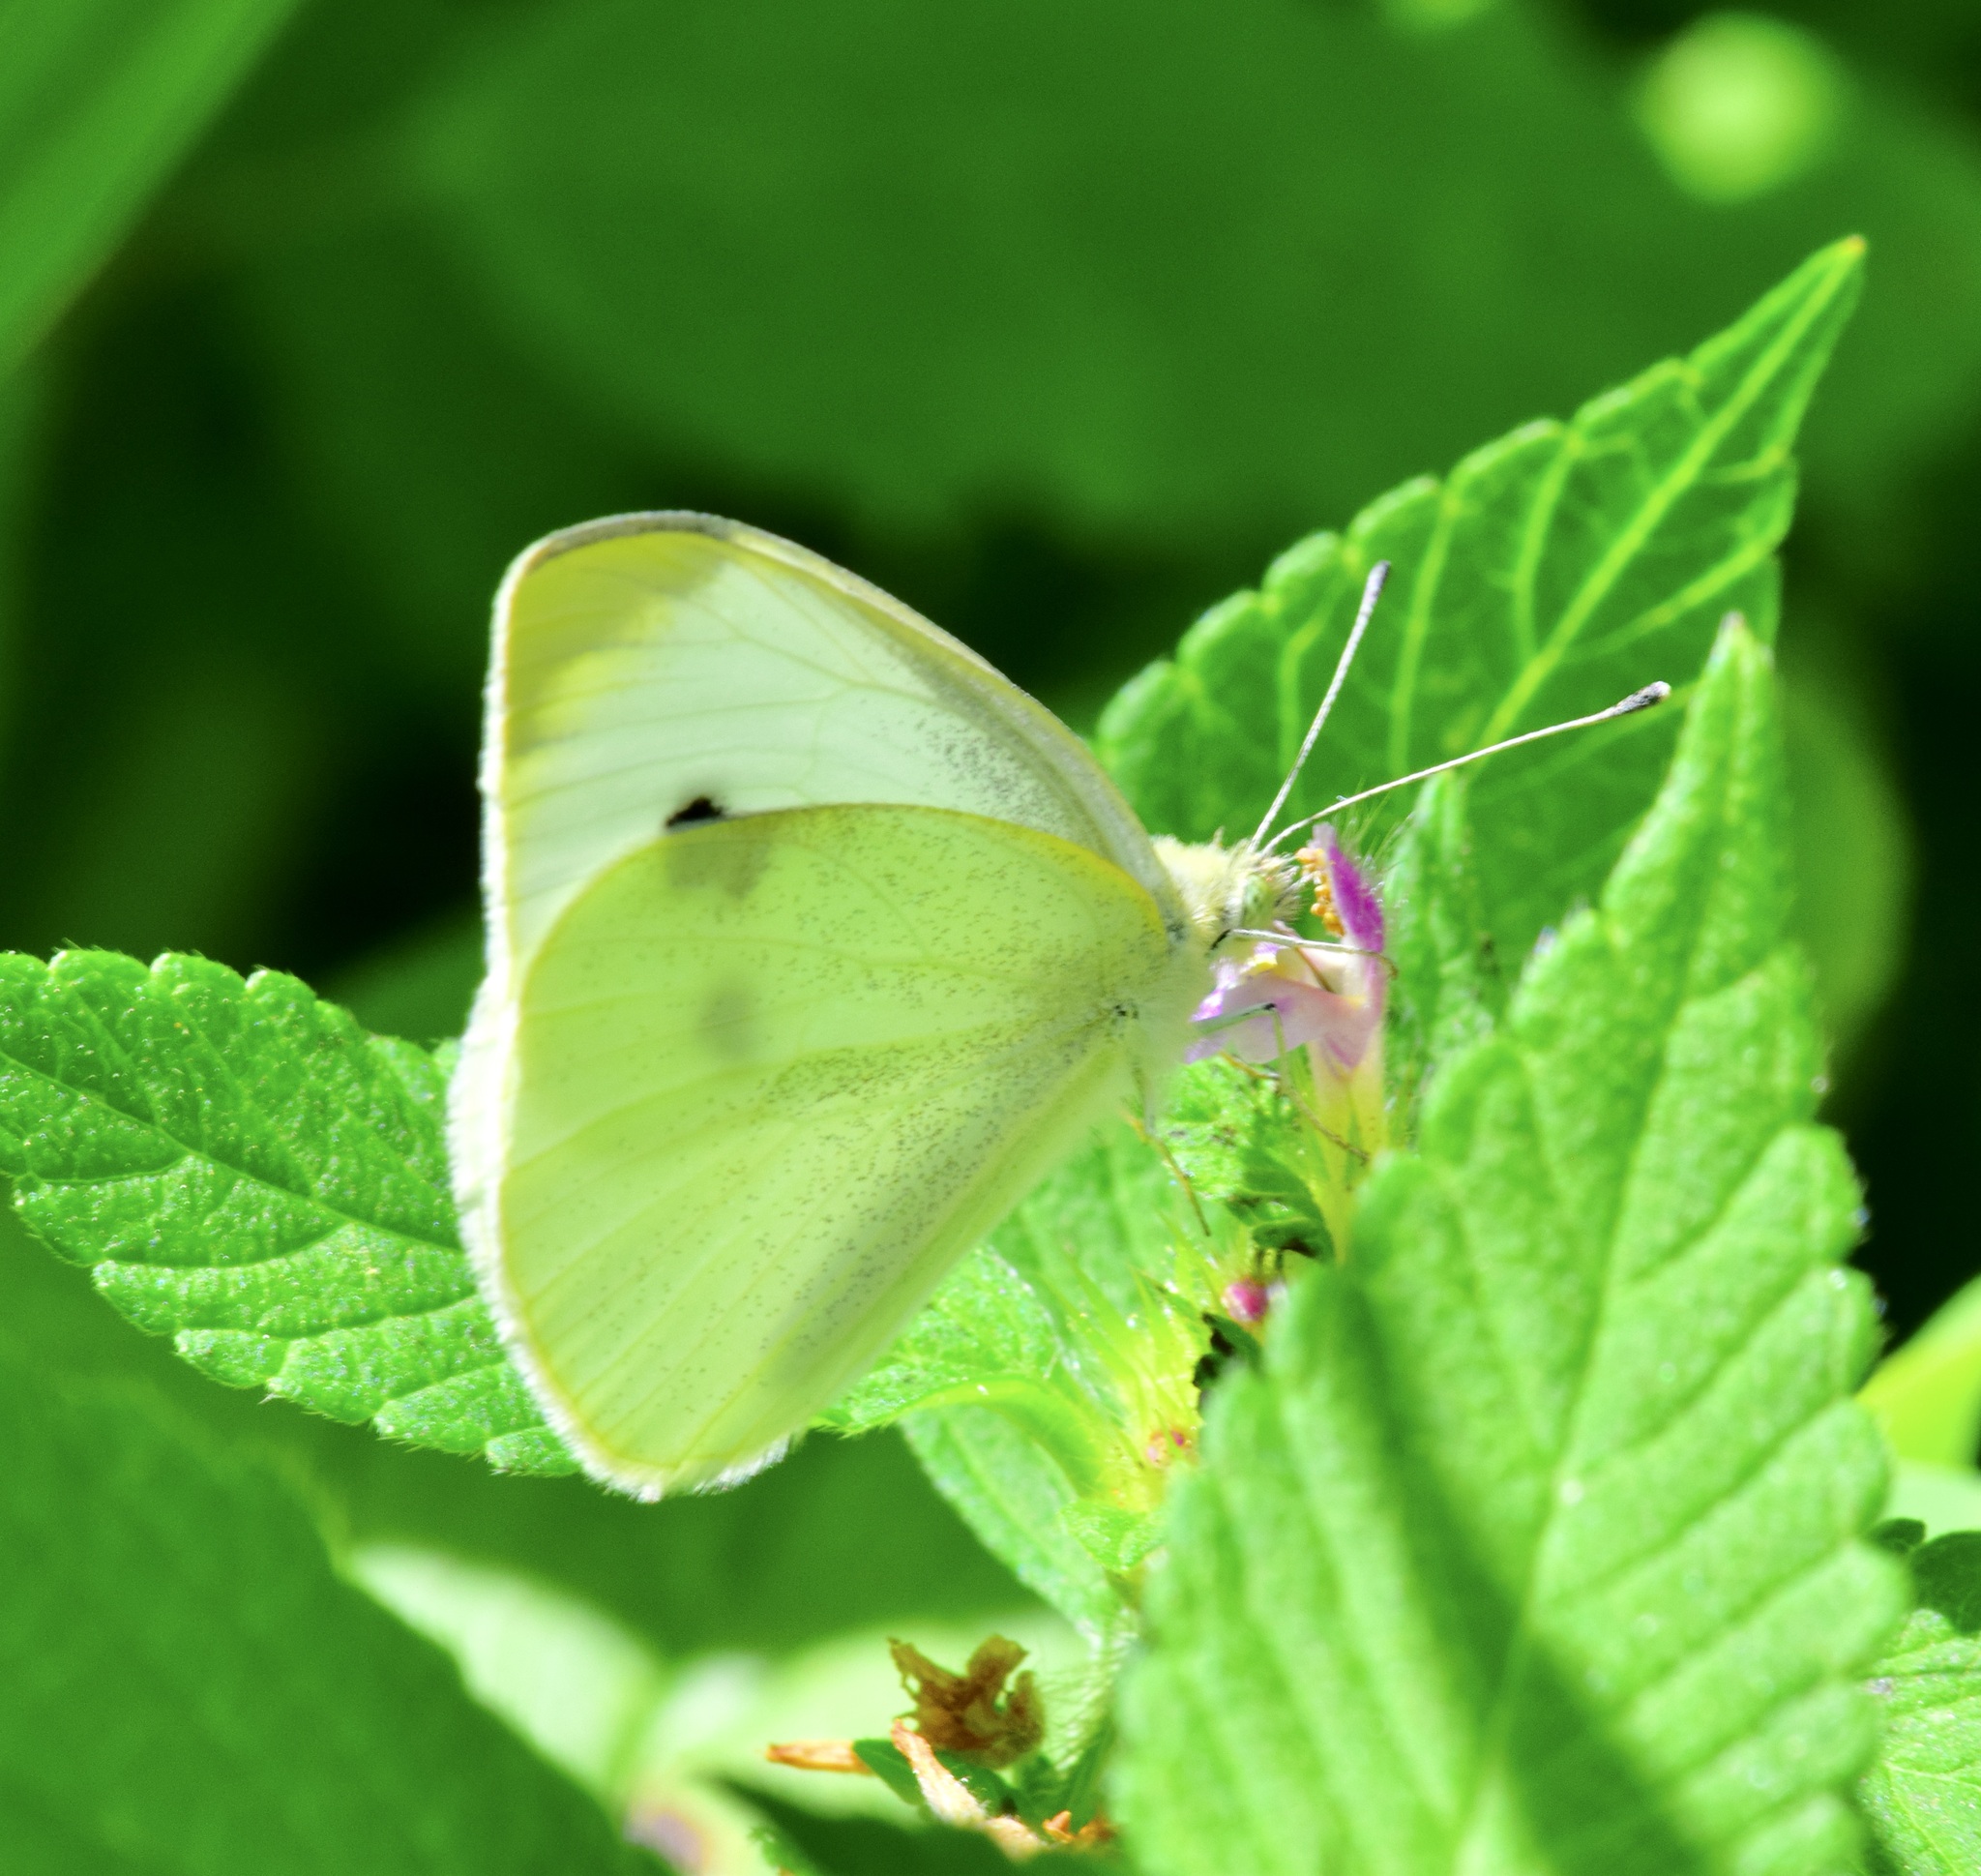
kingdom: Animalia
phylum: Arthropoda
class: Insecta
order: Lepidoptera
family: Pieridae
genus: Pieris
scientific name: Pieris rapae
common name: Small white
